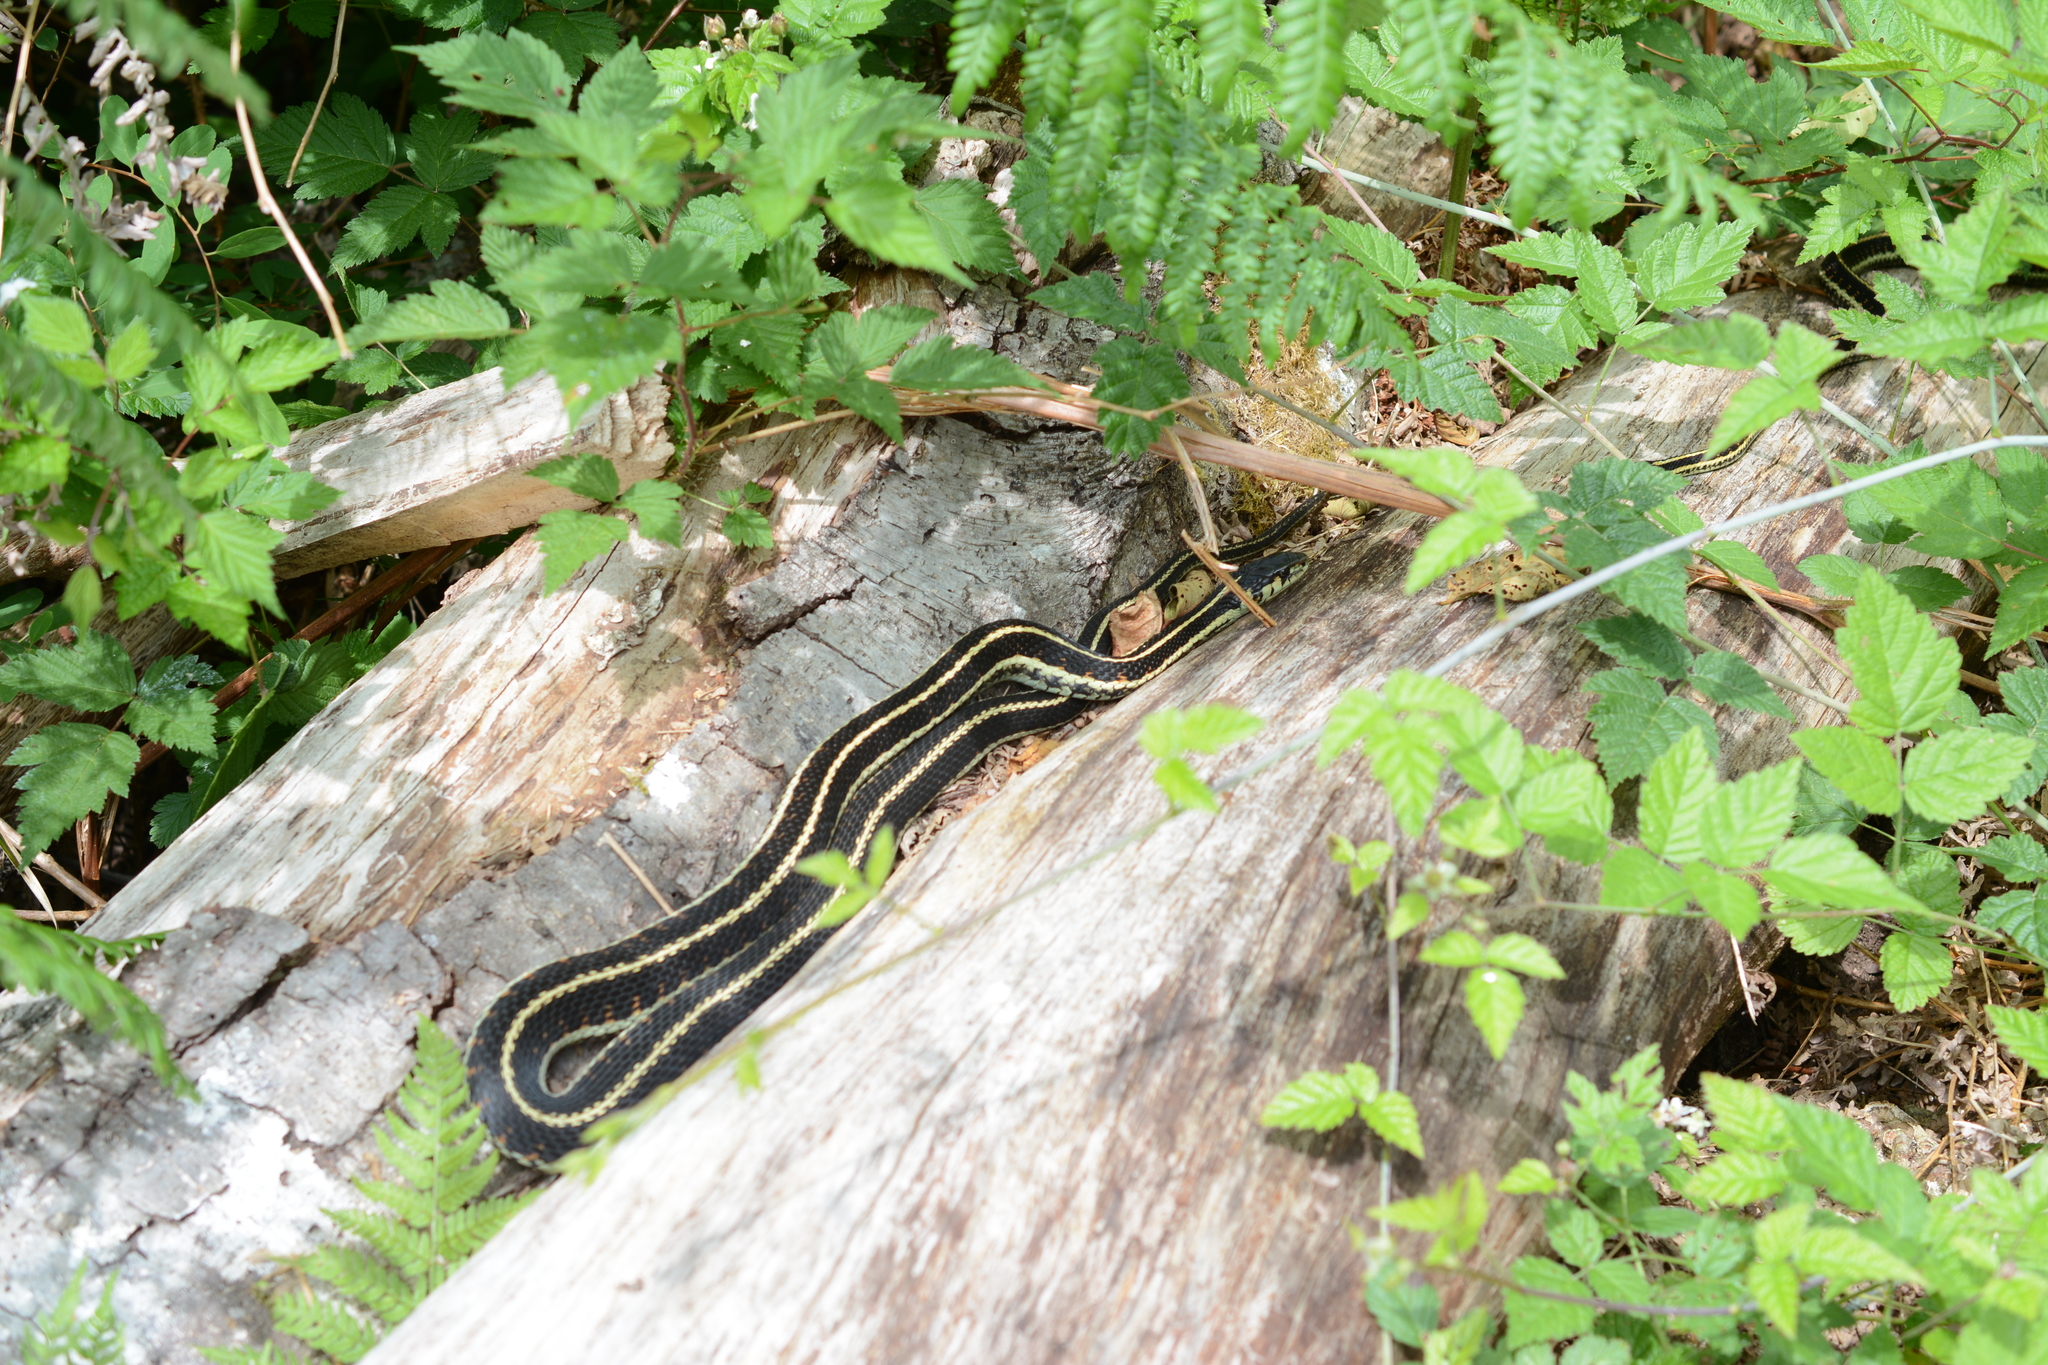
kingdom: Animalia
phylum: Chordata
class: Squamata
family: Colubridae
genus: Thamnophis
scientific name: Thamnophis sirtalis
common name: Common garter snake
